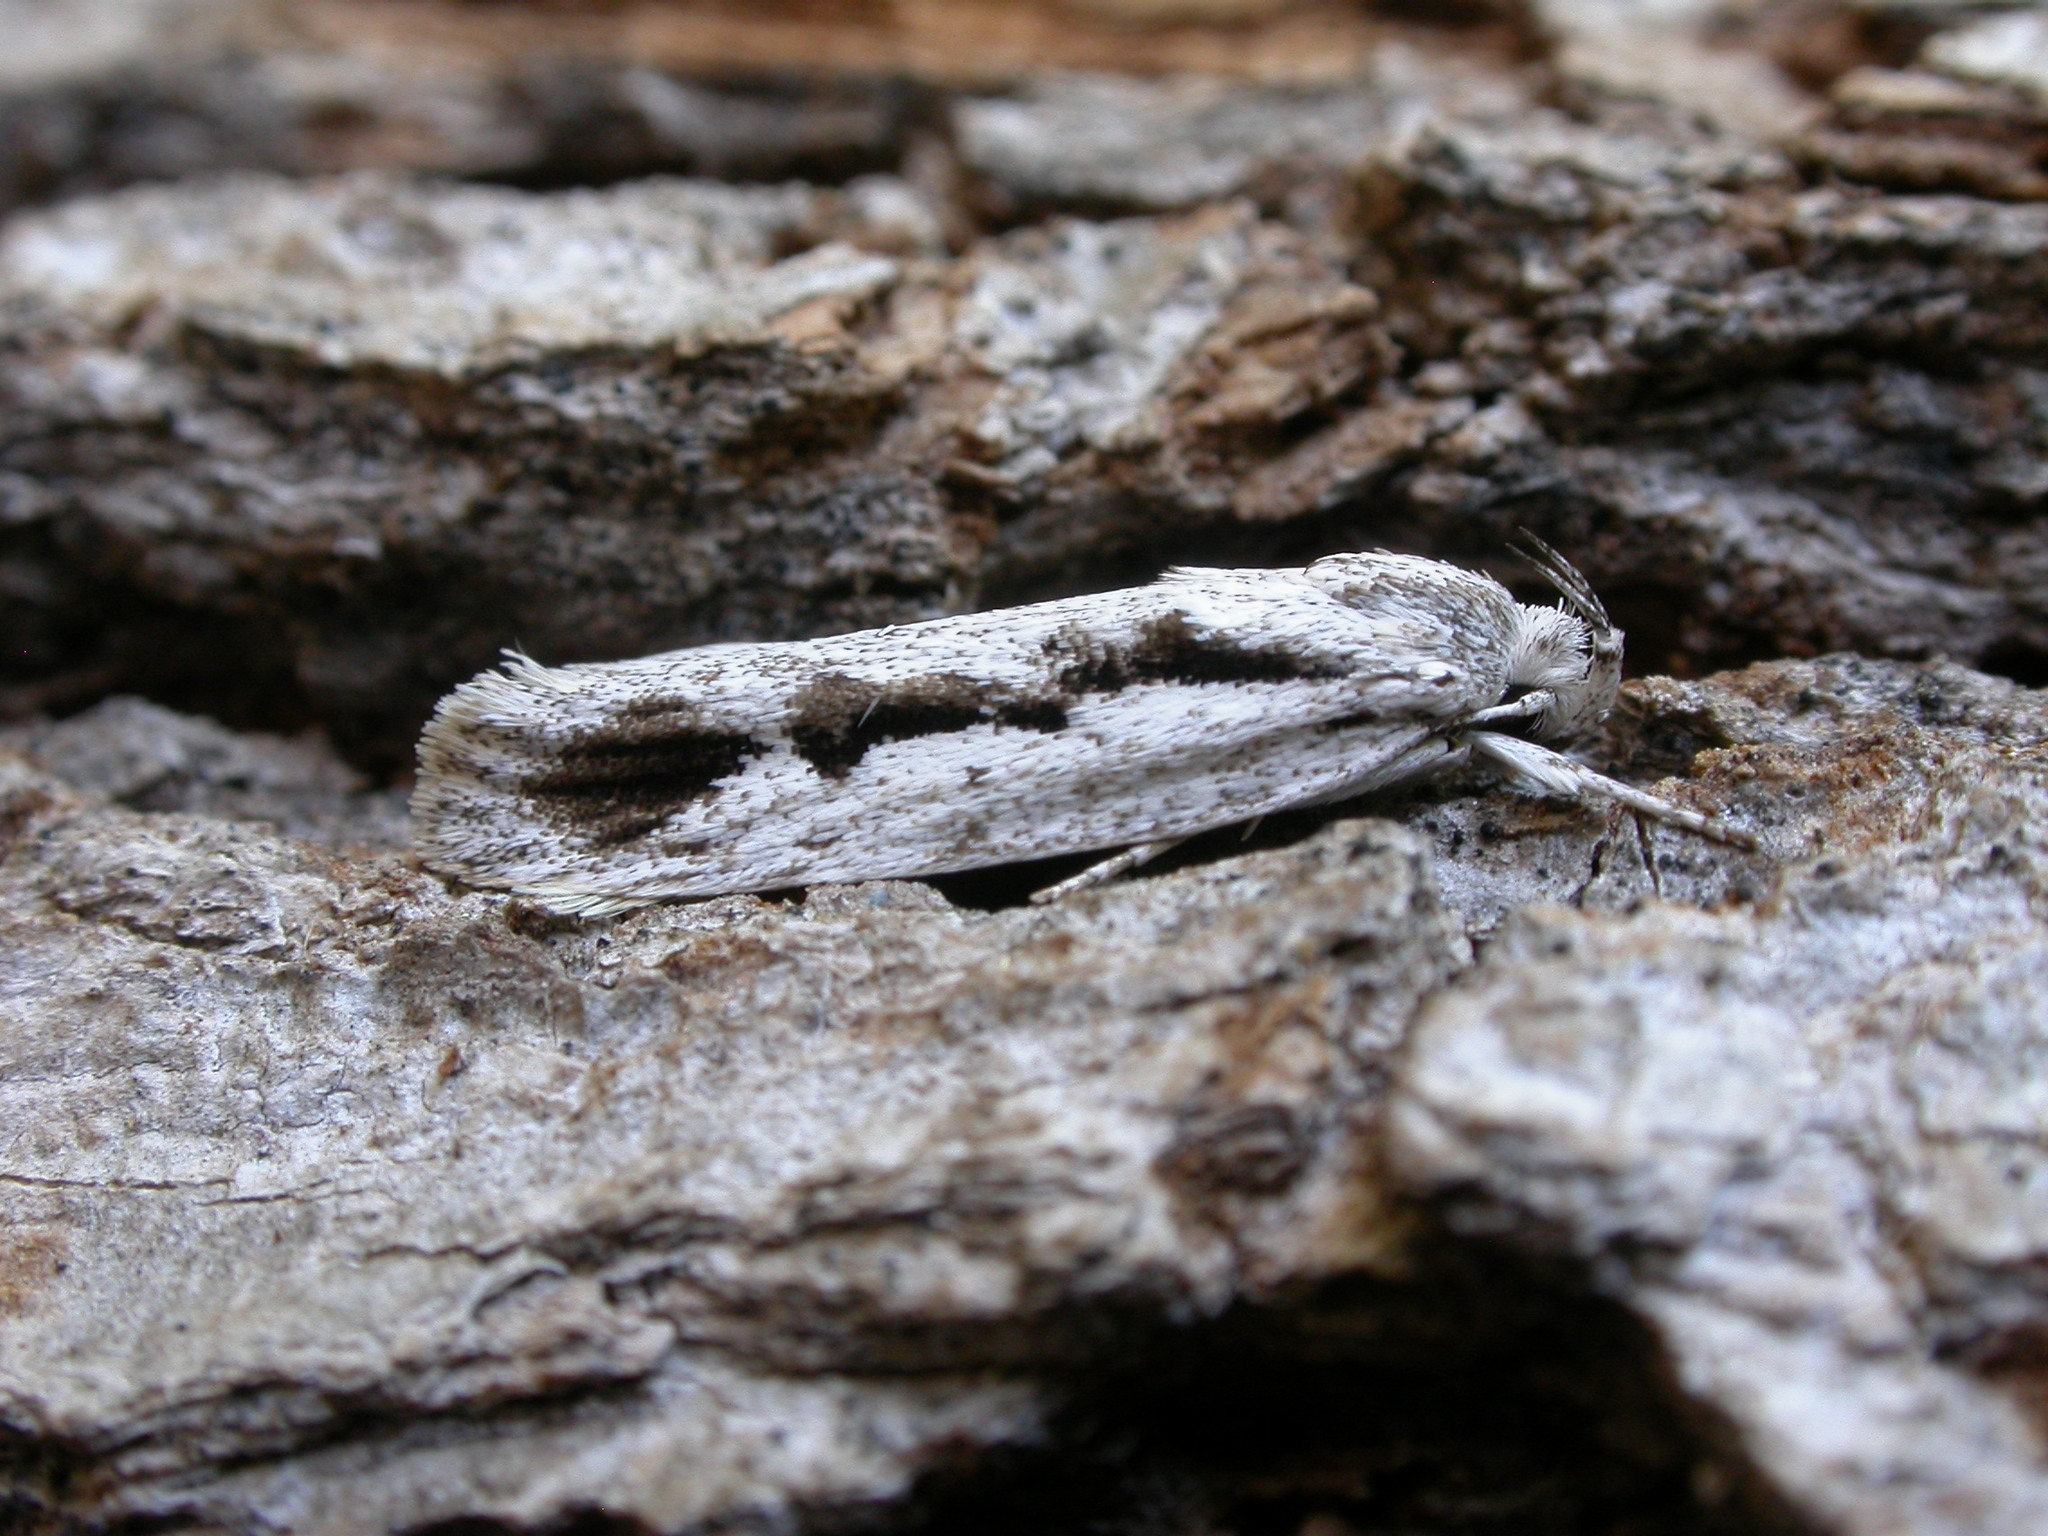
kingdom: Animalia
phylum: Arthropoda
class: Insecta
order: Lepidoptera
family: Oecophoridae
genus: Eulechria
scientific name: Eulechria encratodes
